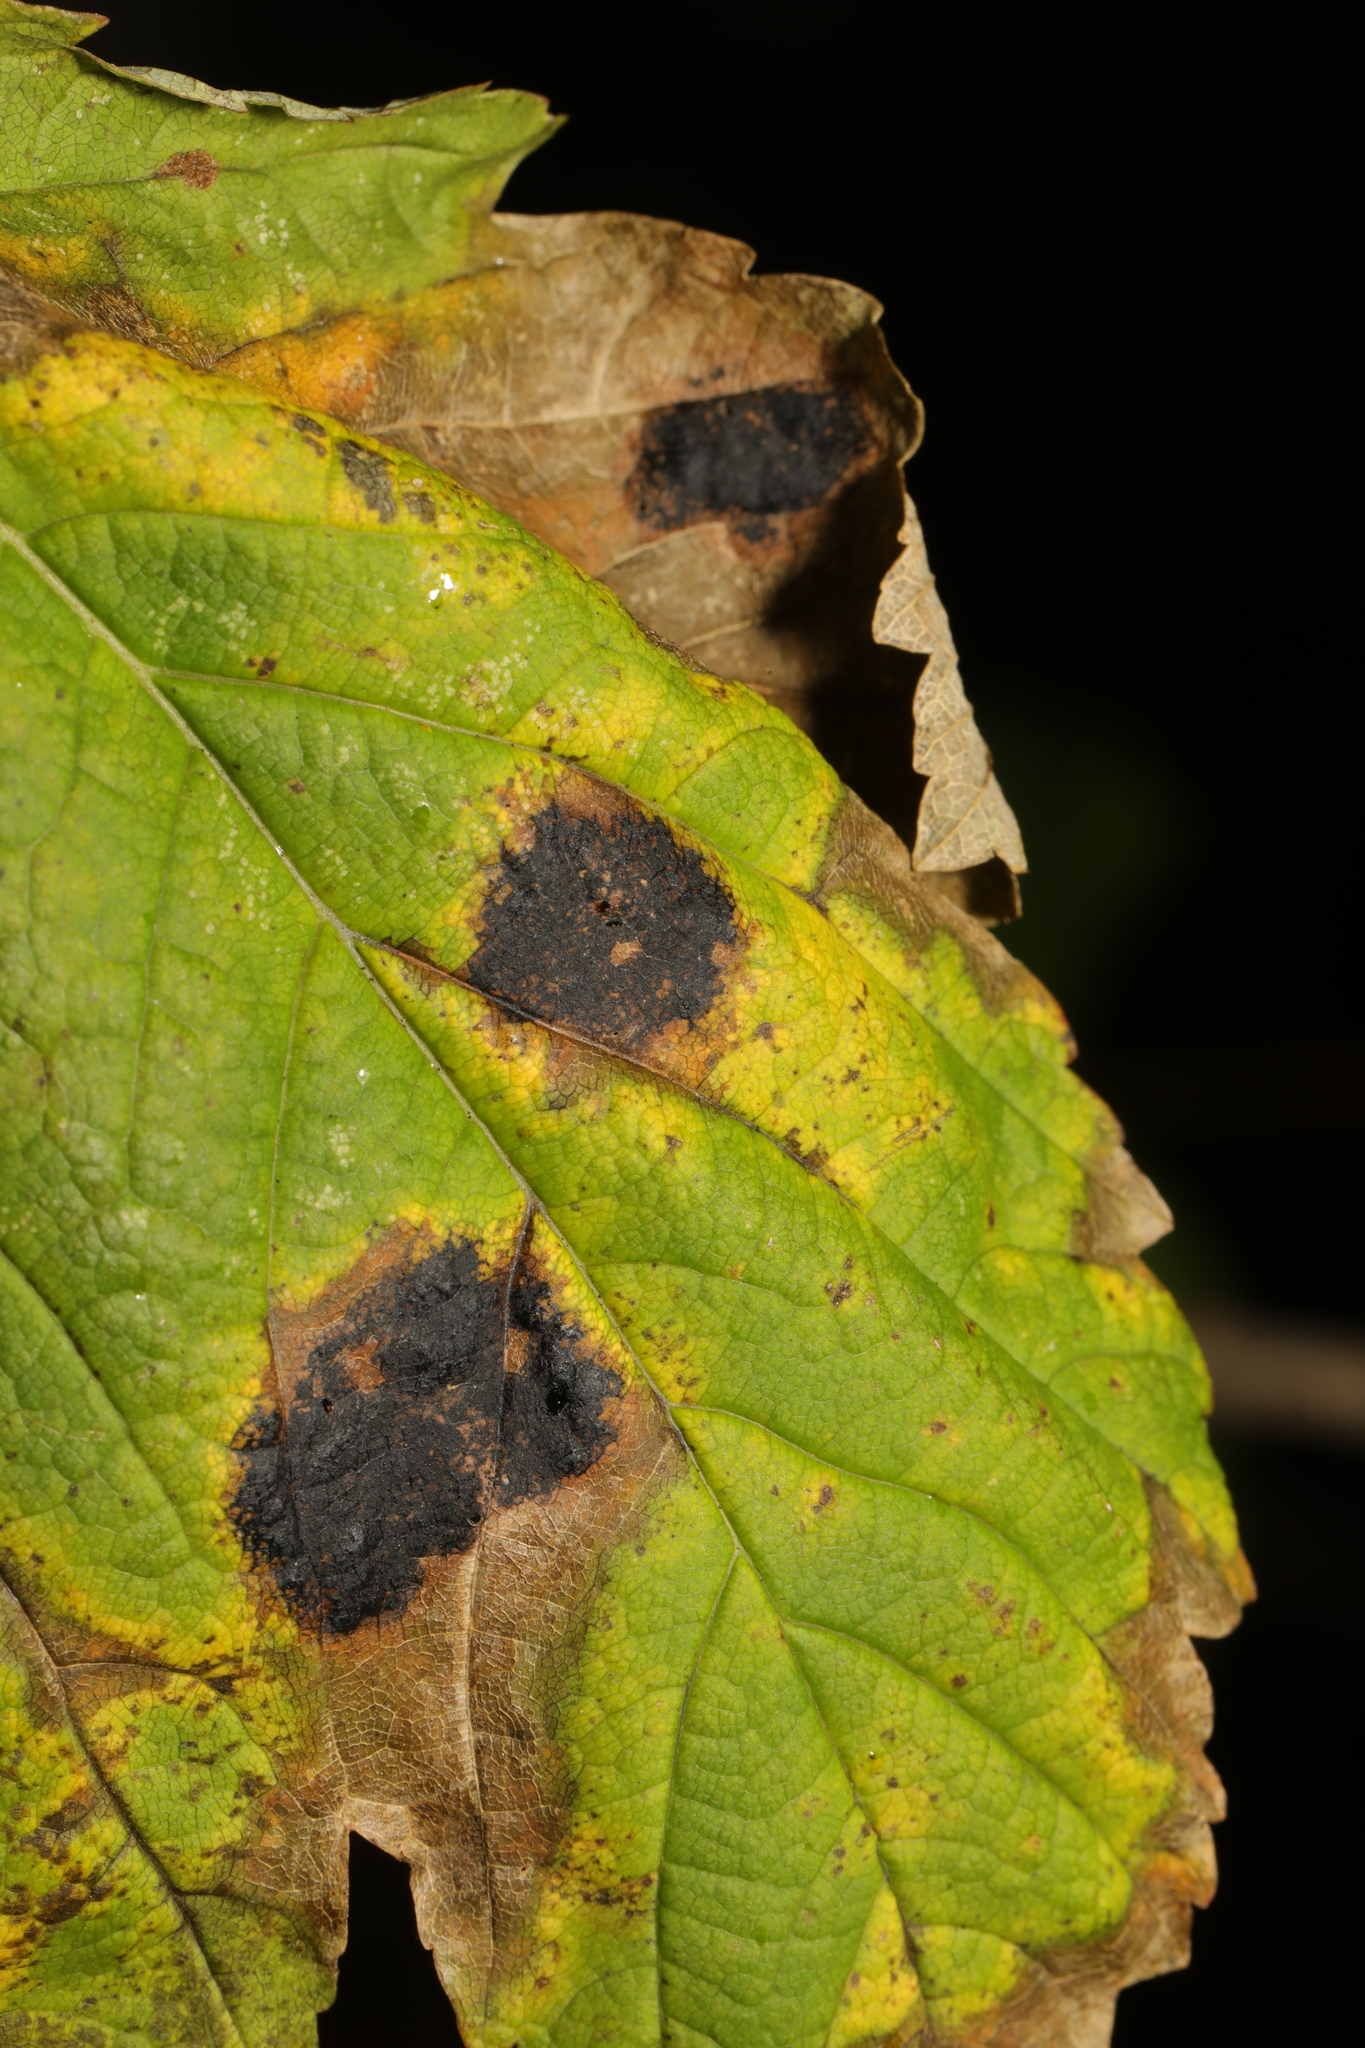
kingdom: Fungi
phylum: Ascomycota
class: Leotiomycetes
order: Rhytismatales
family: Rhytismataceae
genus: Rhytisma
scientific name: Rhytisma acerinum
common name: European tar spot
